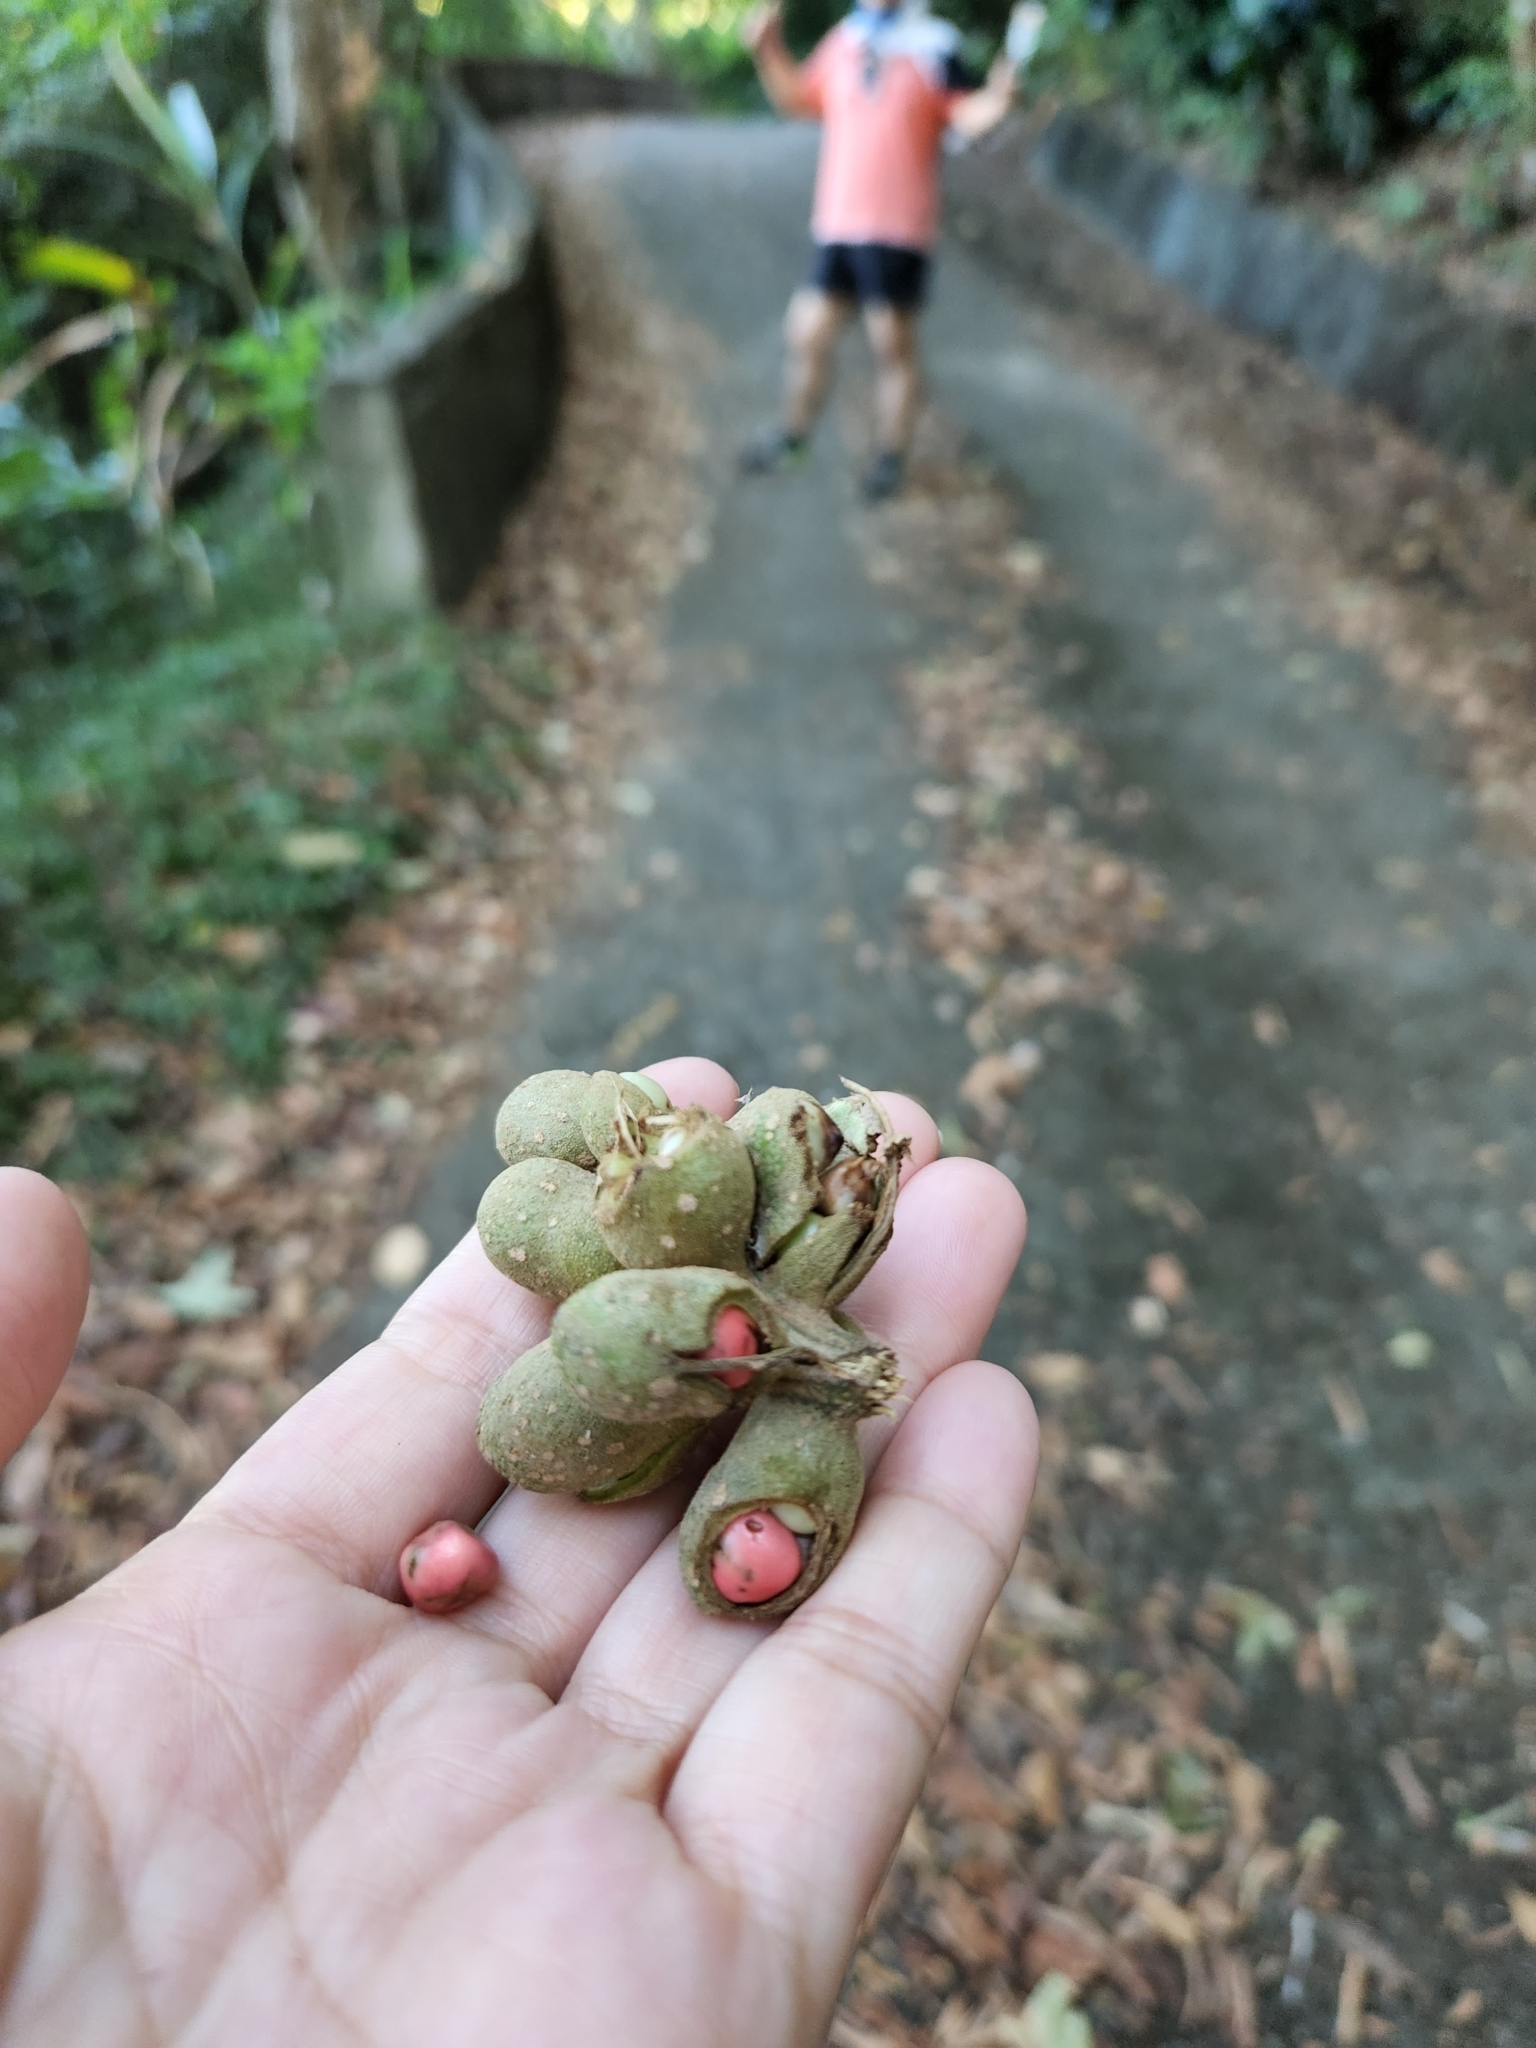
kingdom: Plantae
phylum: Tracheophyta
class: Magnoliopsida
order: Magnoliales
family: Magnoliaceae
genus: Magnolia
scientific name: Magnolia compressa
